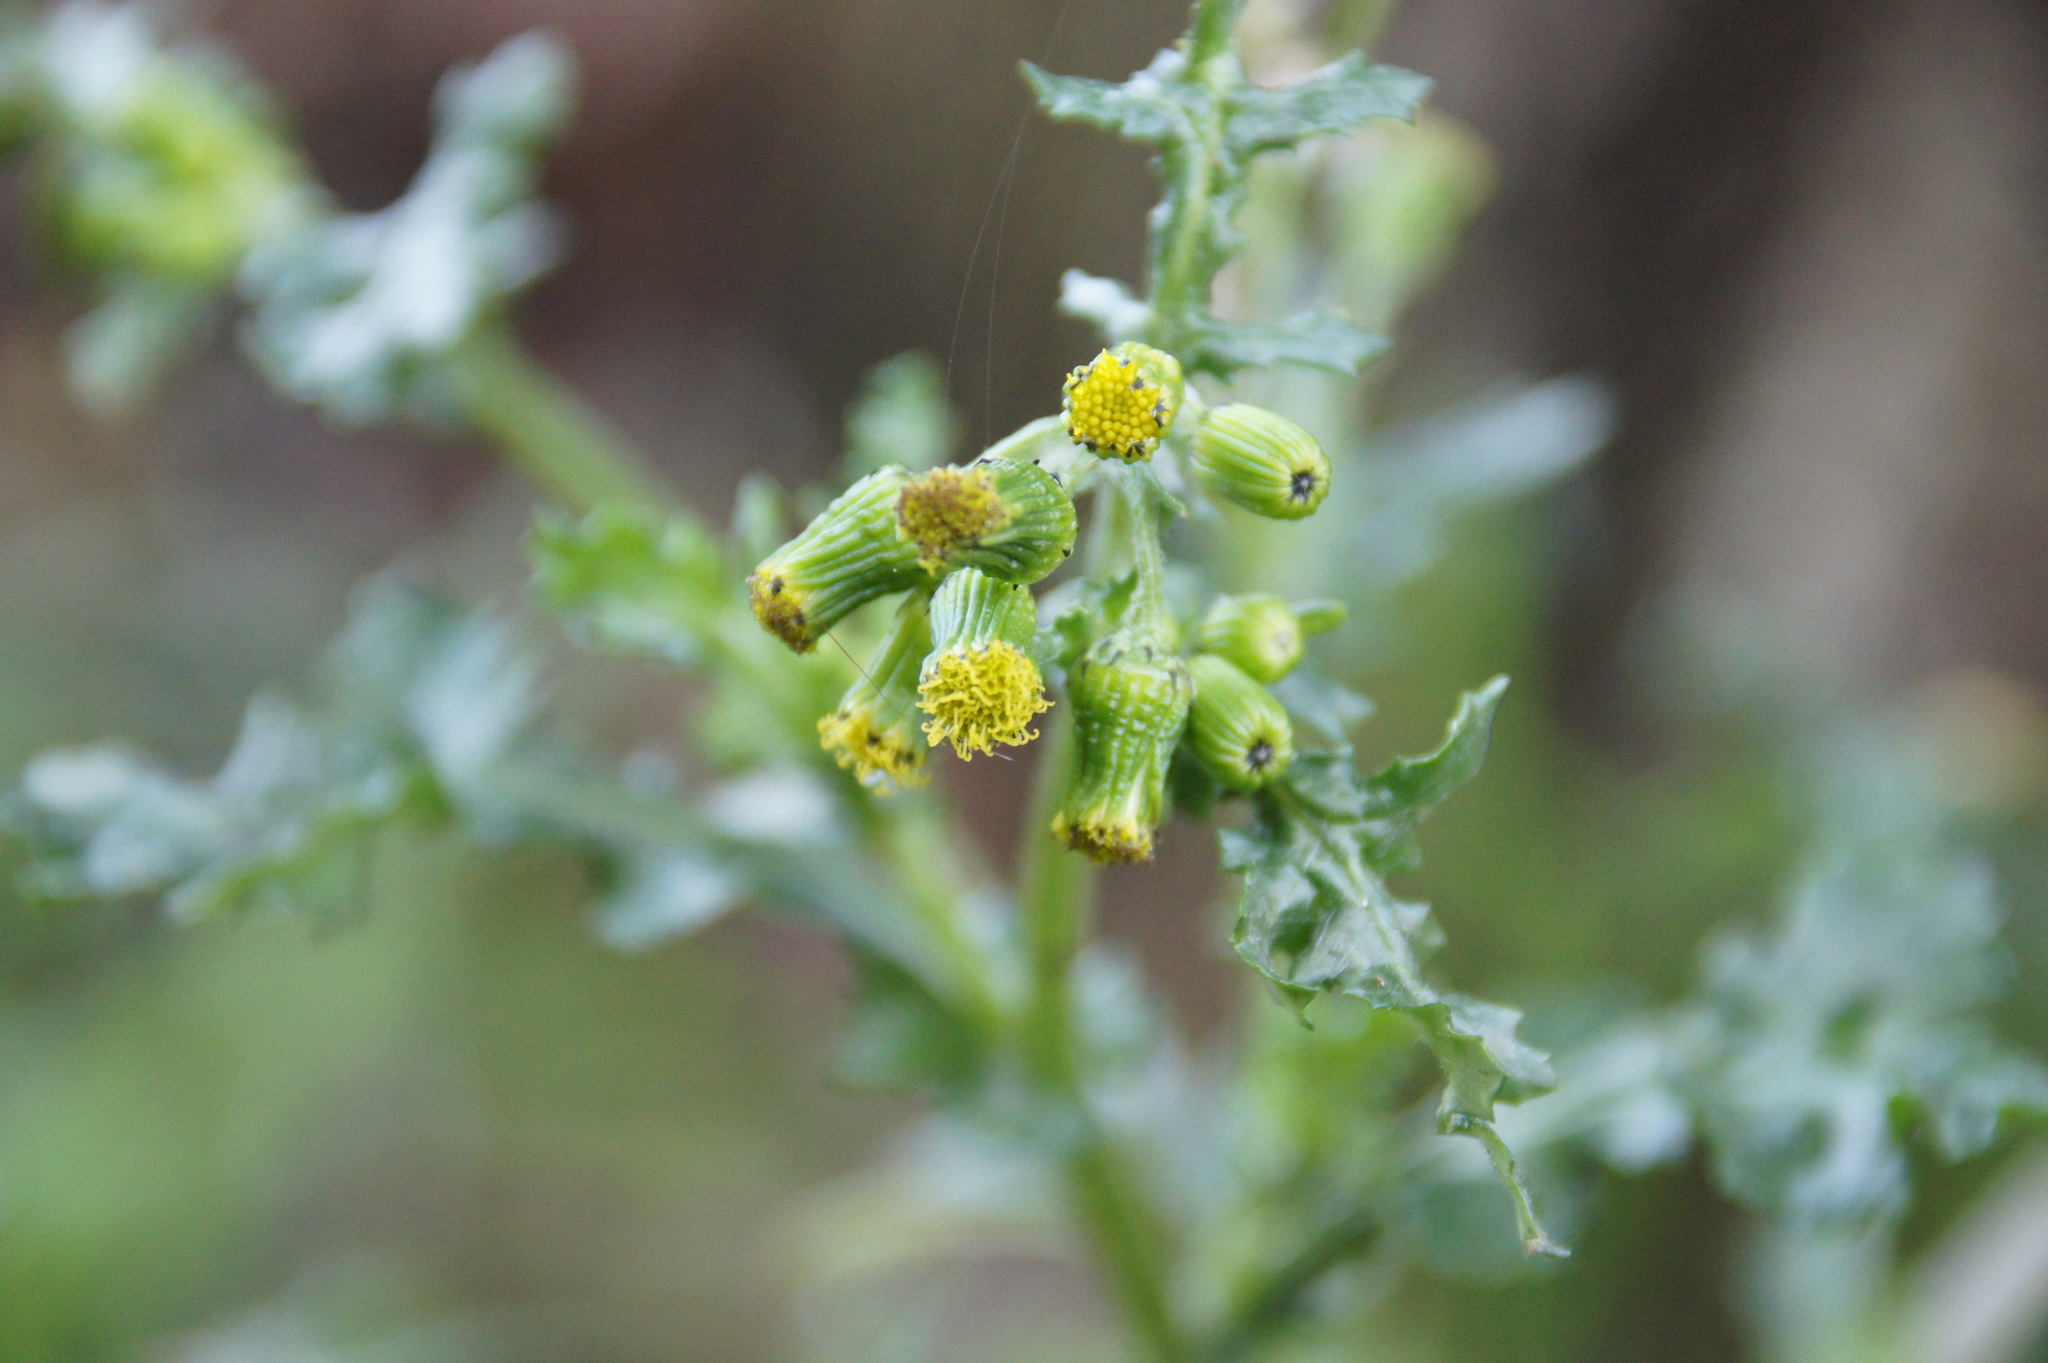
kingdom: Plantae
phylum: Tracheophyta
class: Magnoliopsida
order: Asterales
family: Asteraceae
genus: Senecio
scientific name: Senecio vulgaris
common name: Old-man-in-the-spring
